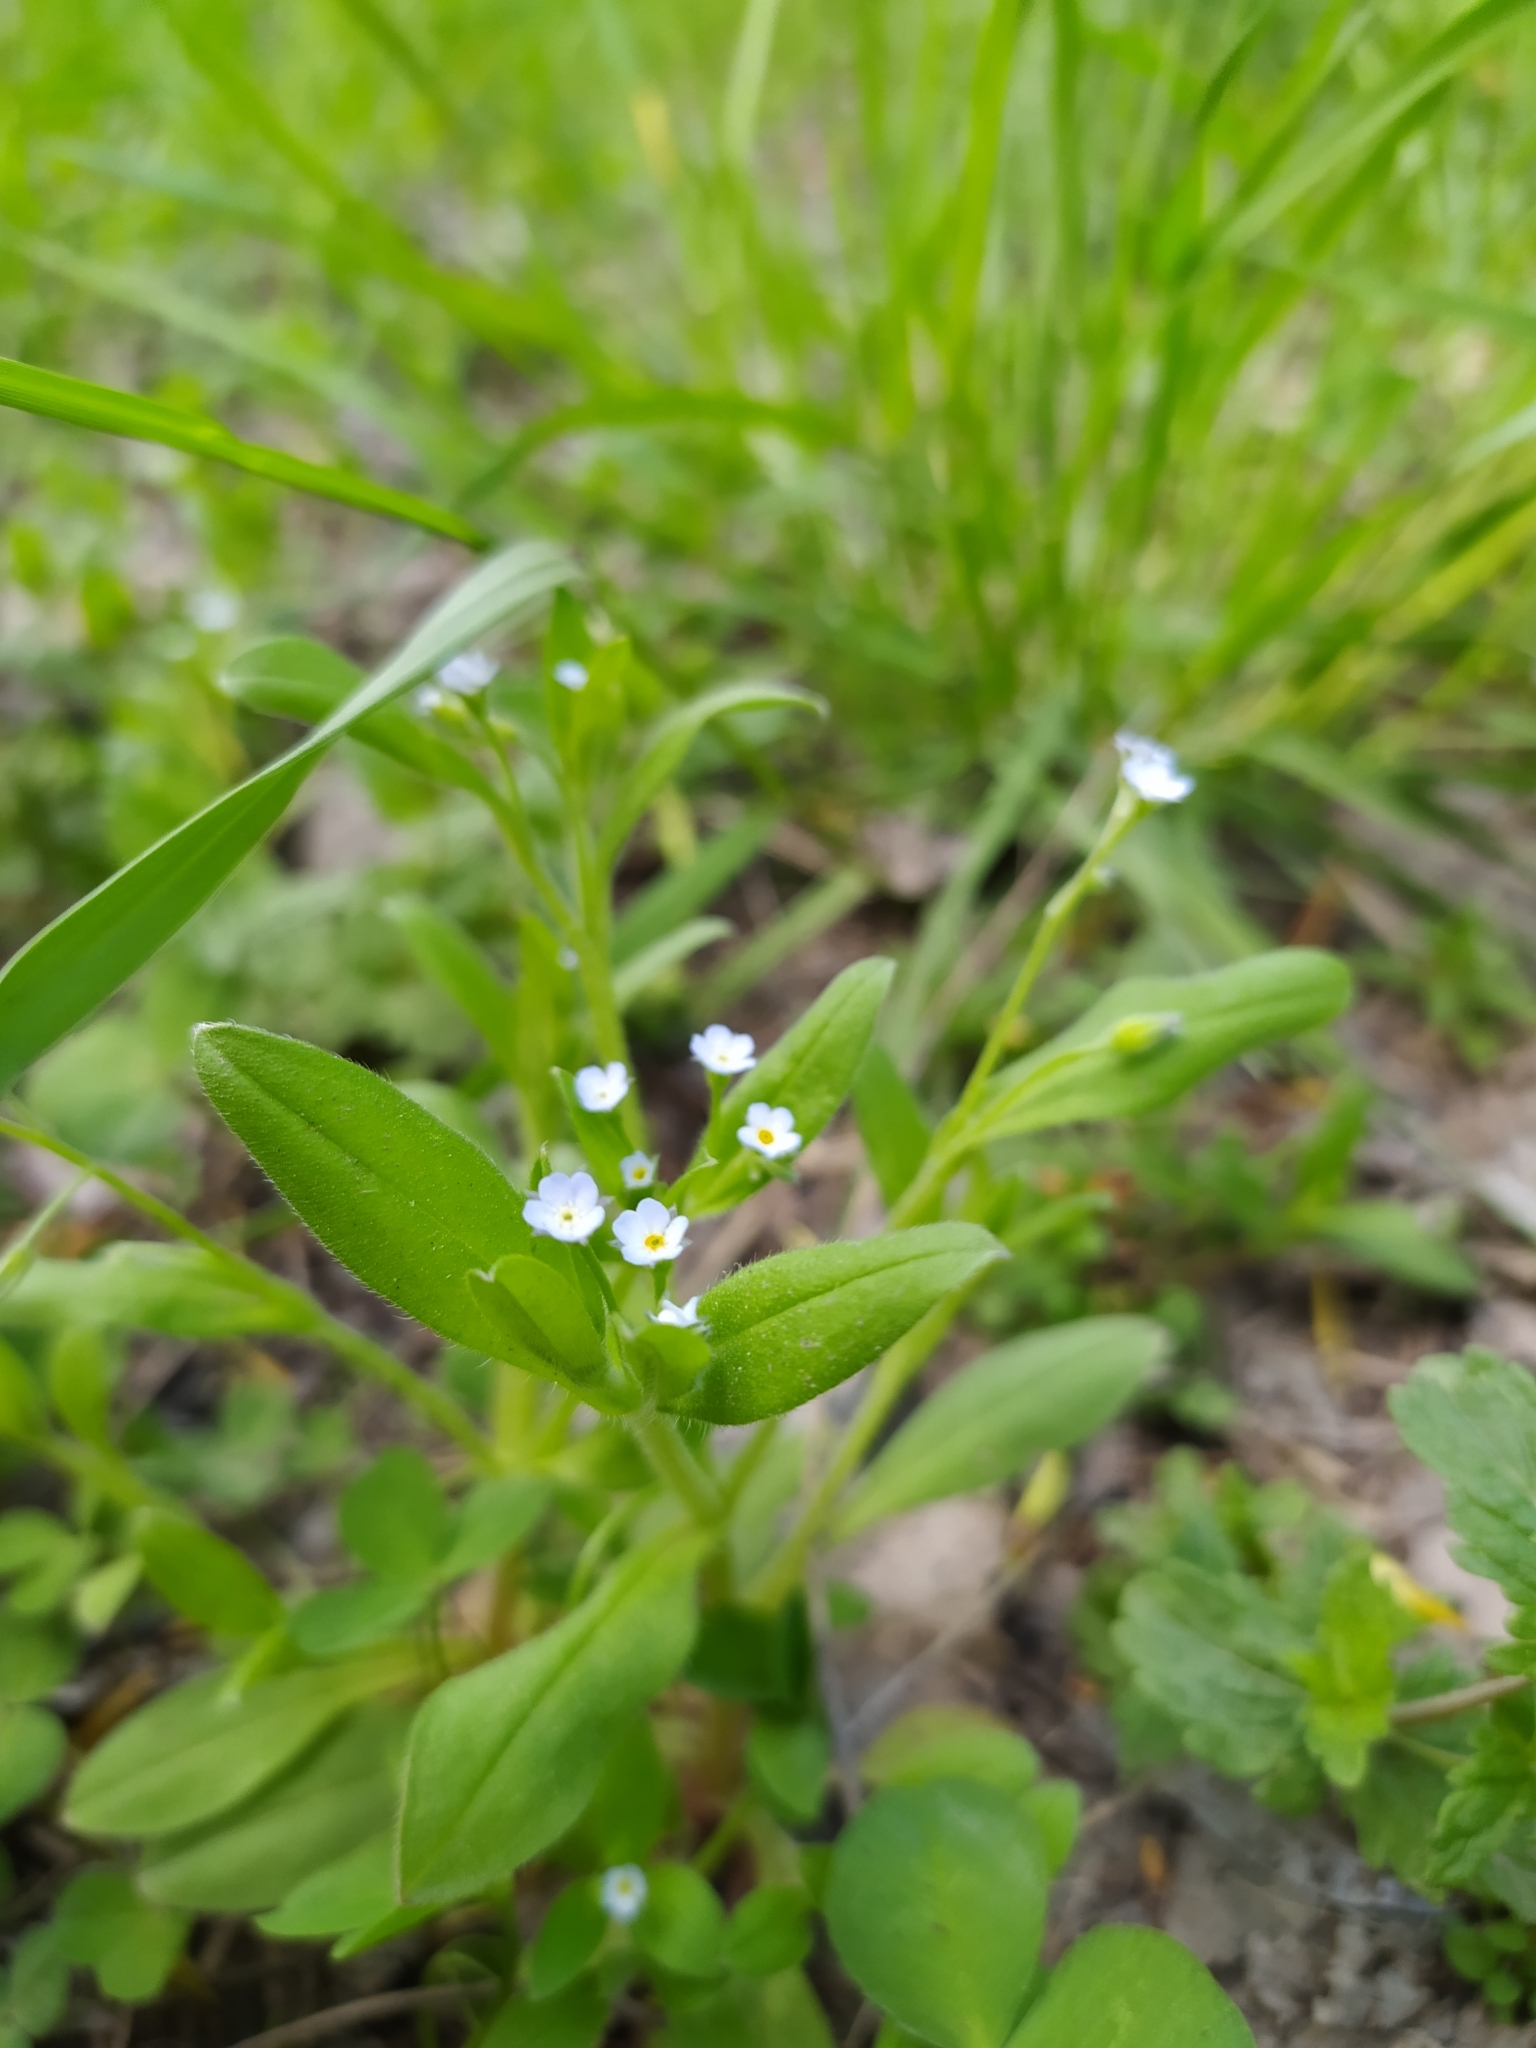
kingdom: Plantae
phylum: Tracheophyta
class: Magnoliopsida
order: Boraginales
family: Boraginaceae
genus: Myosotis
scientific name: Myosotis sparsiflora
